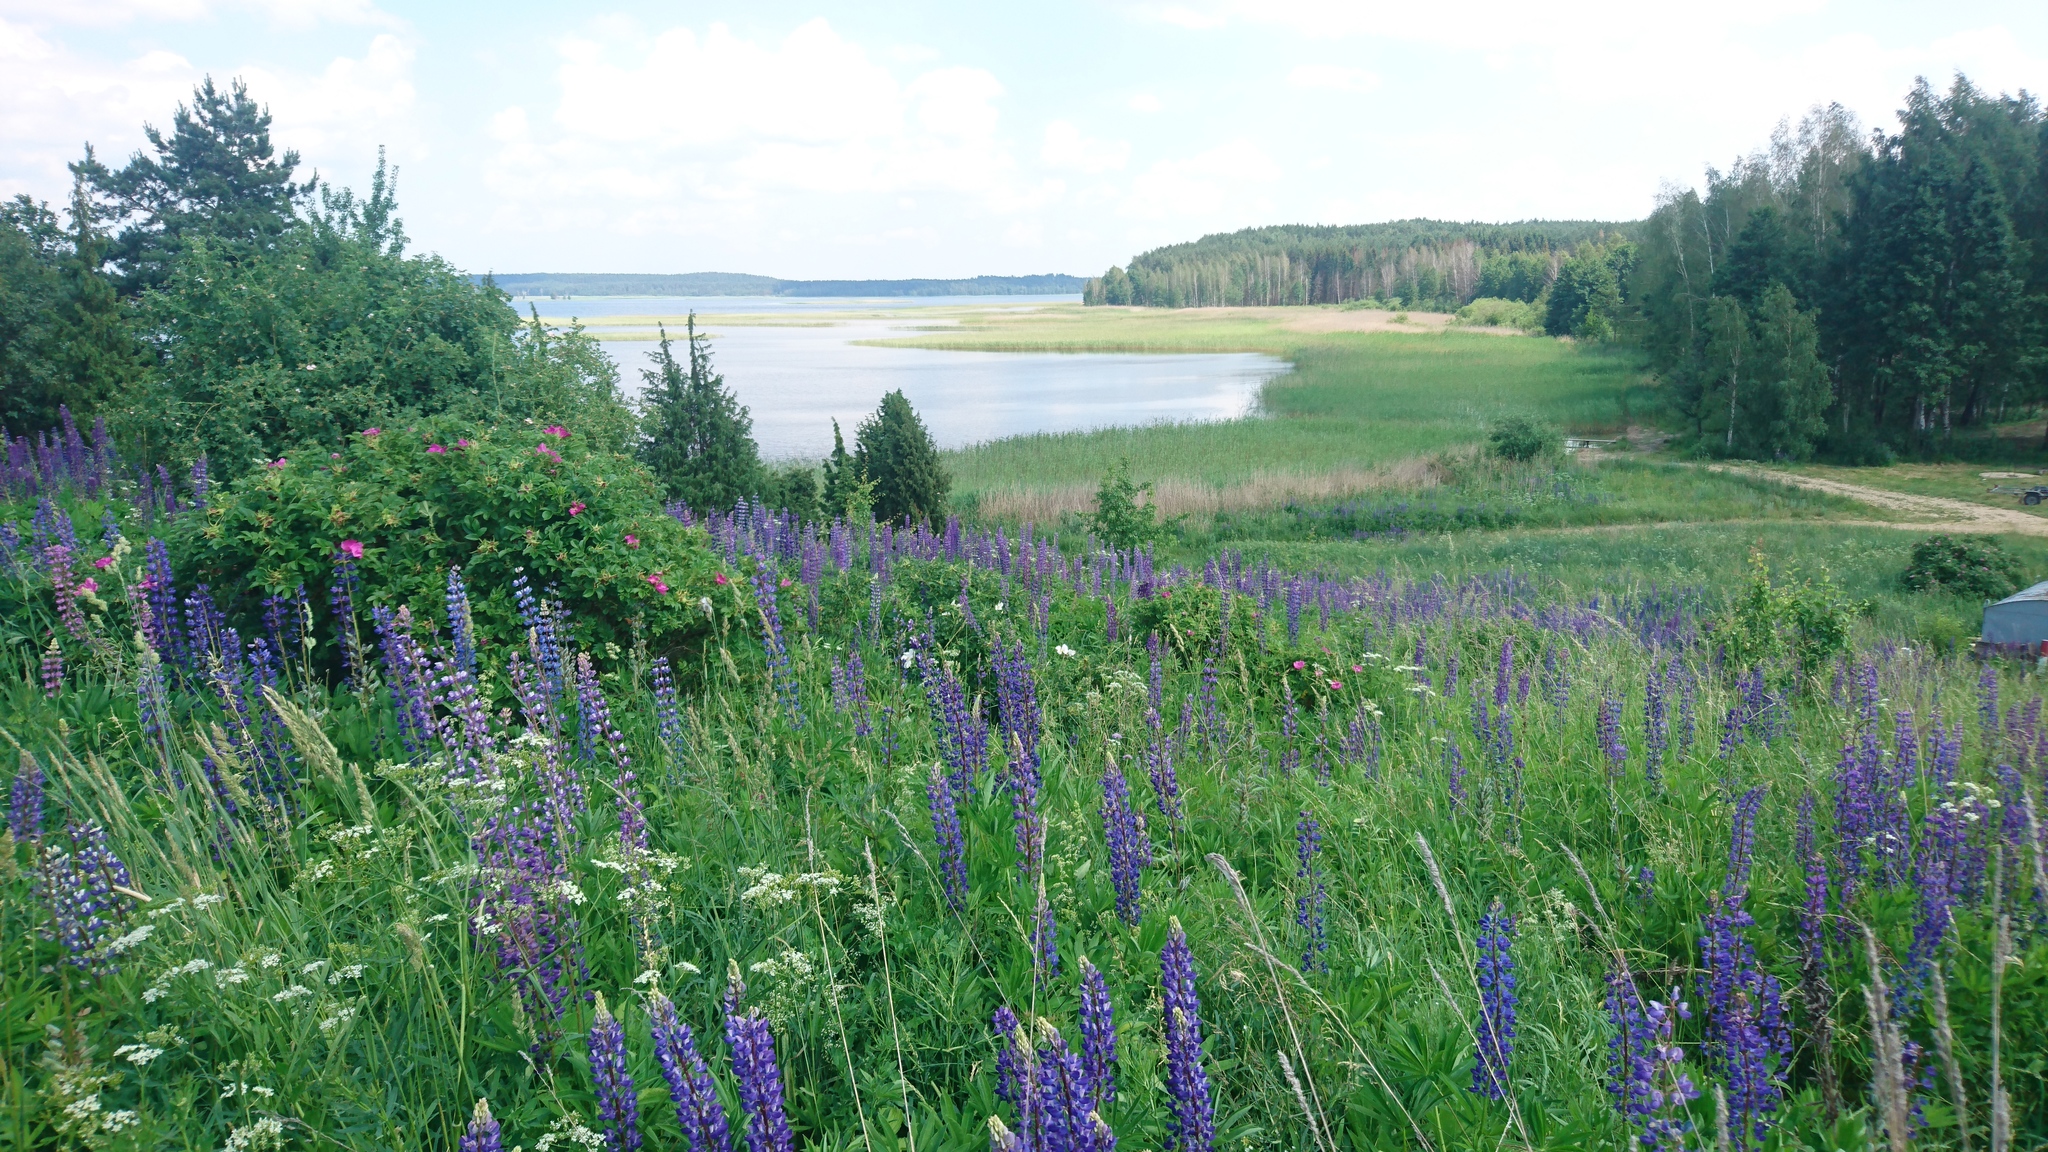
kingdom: Plantae
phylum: Tracheophyta
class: Magnoliopsida
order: Fabales
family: Fabaceae
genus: Lupinus
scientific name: Lupinus polyphyllus
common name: Garden lupin
